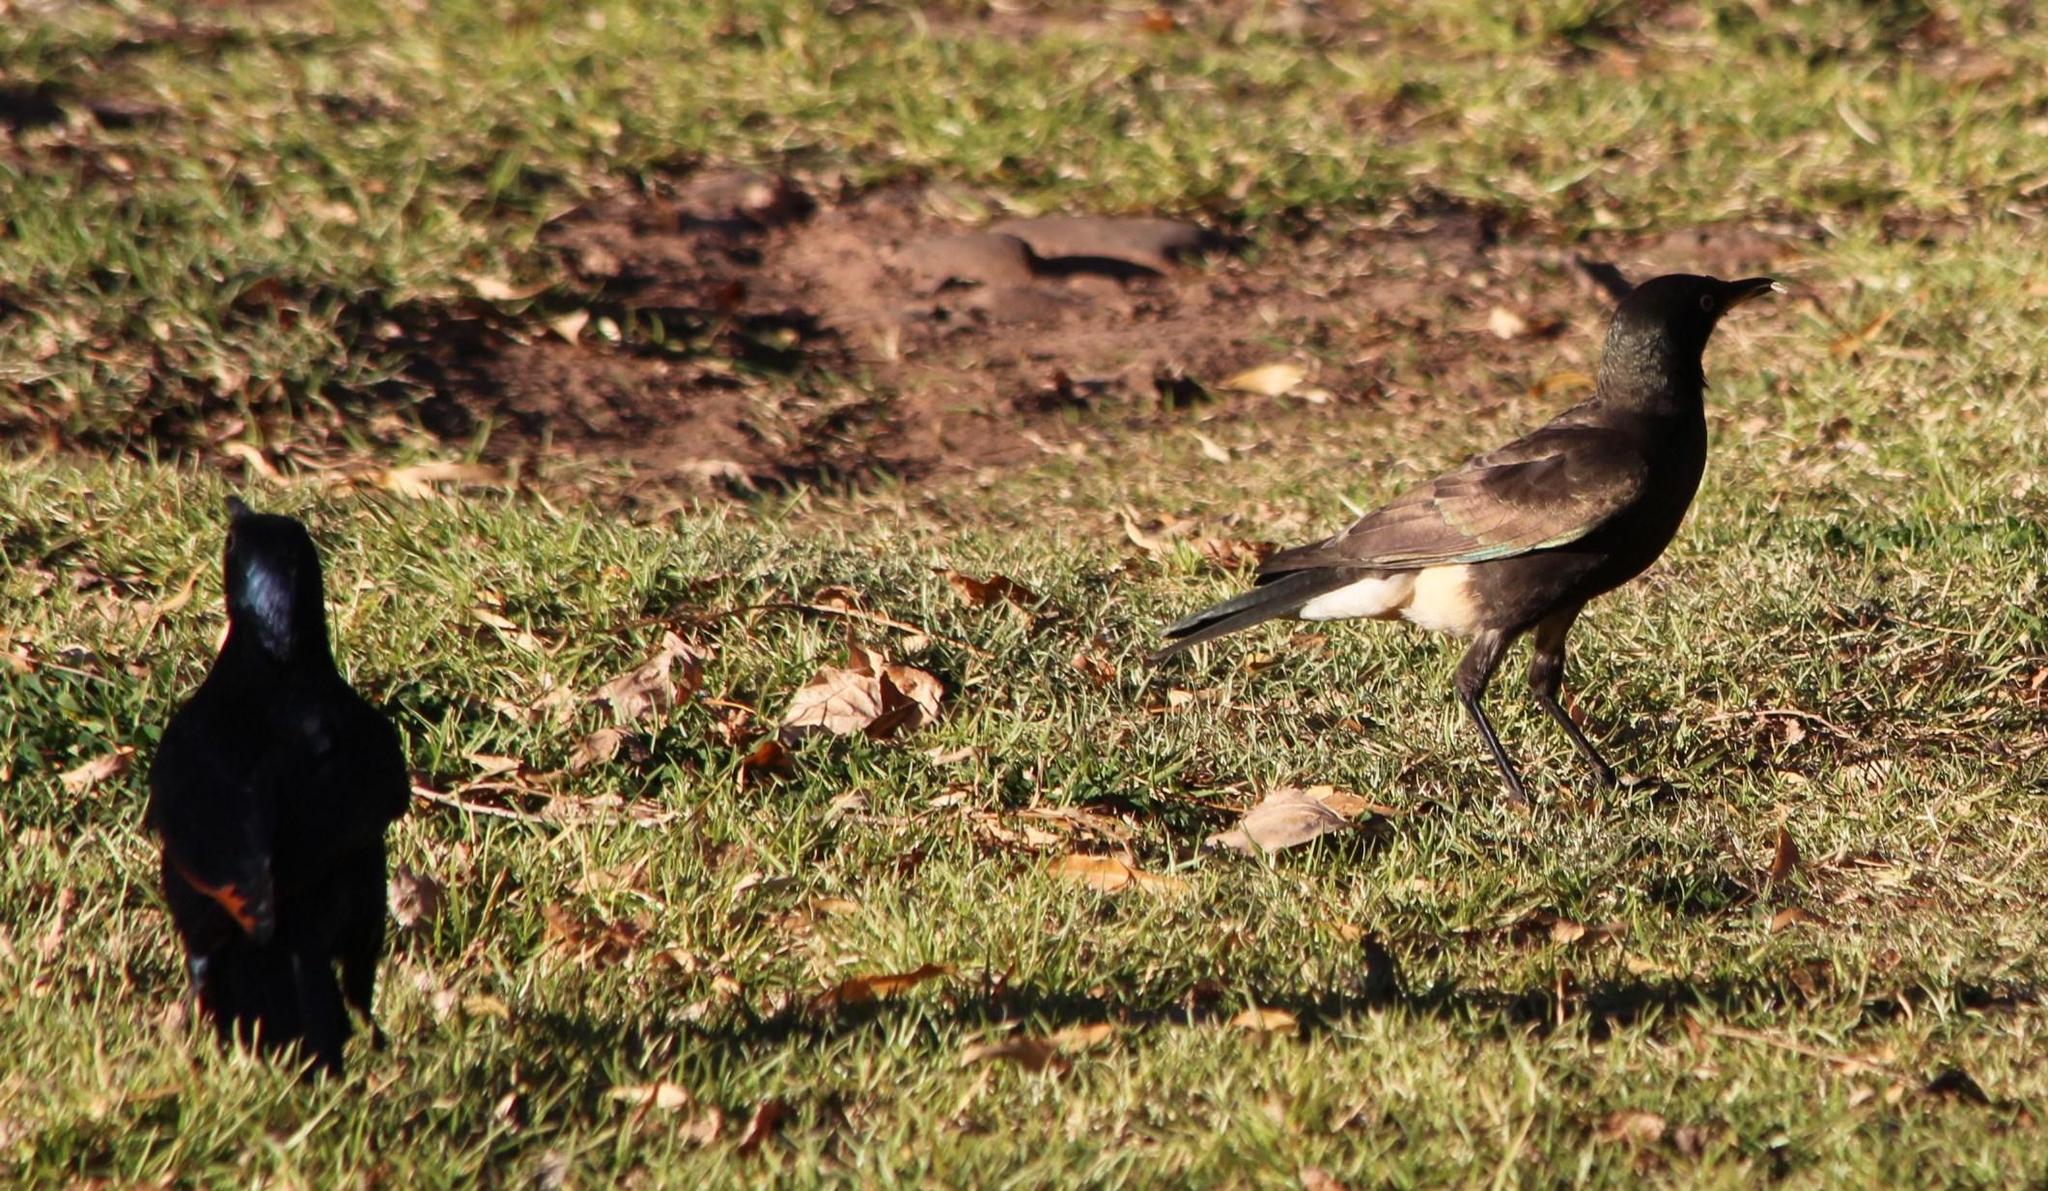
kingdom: Animalia
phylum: Chordata
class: Aves
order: Passeriformes
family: Sturnidae
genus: Lamprotornis
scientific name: Lamprotornis bicolor
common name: Pied starling
